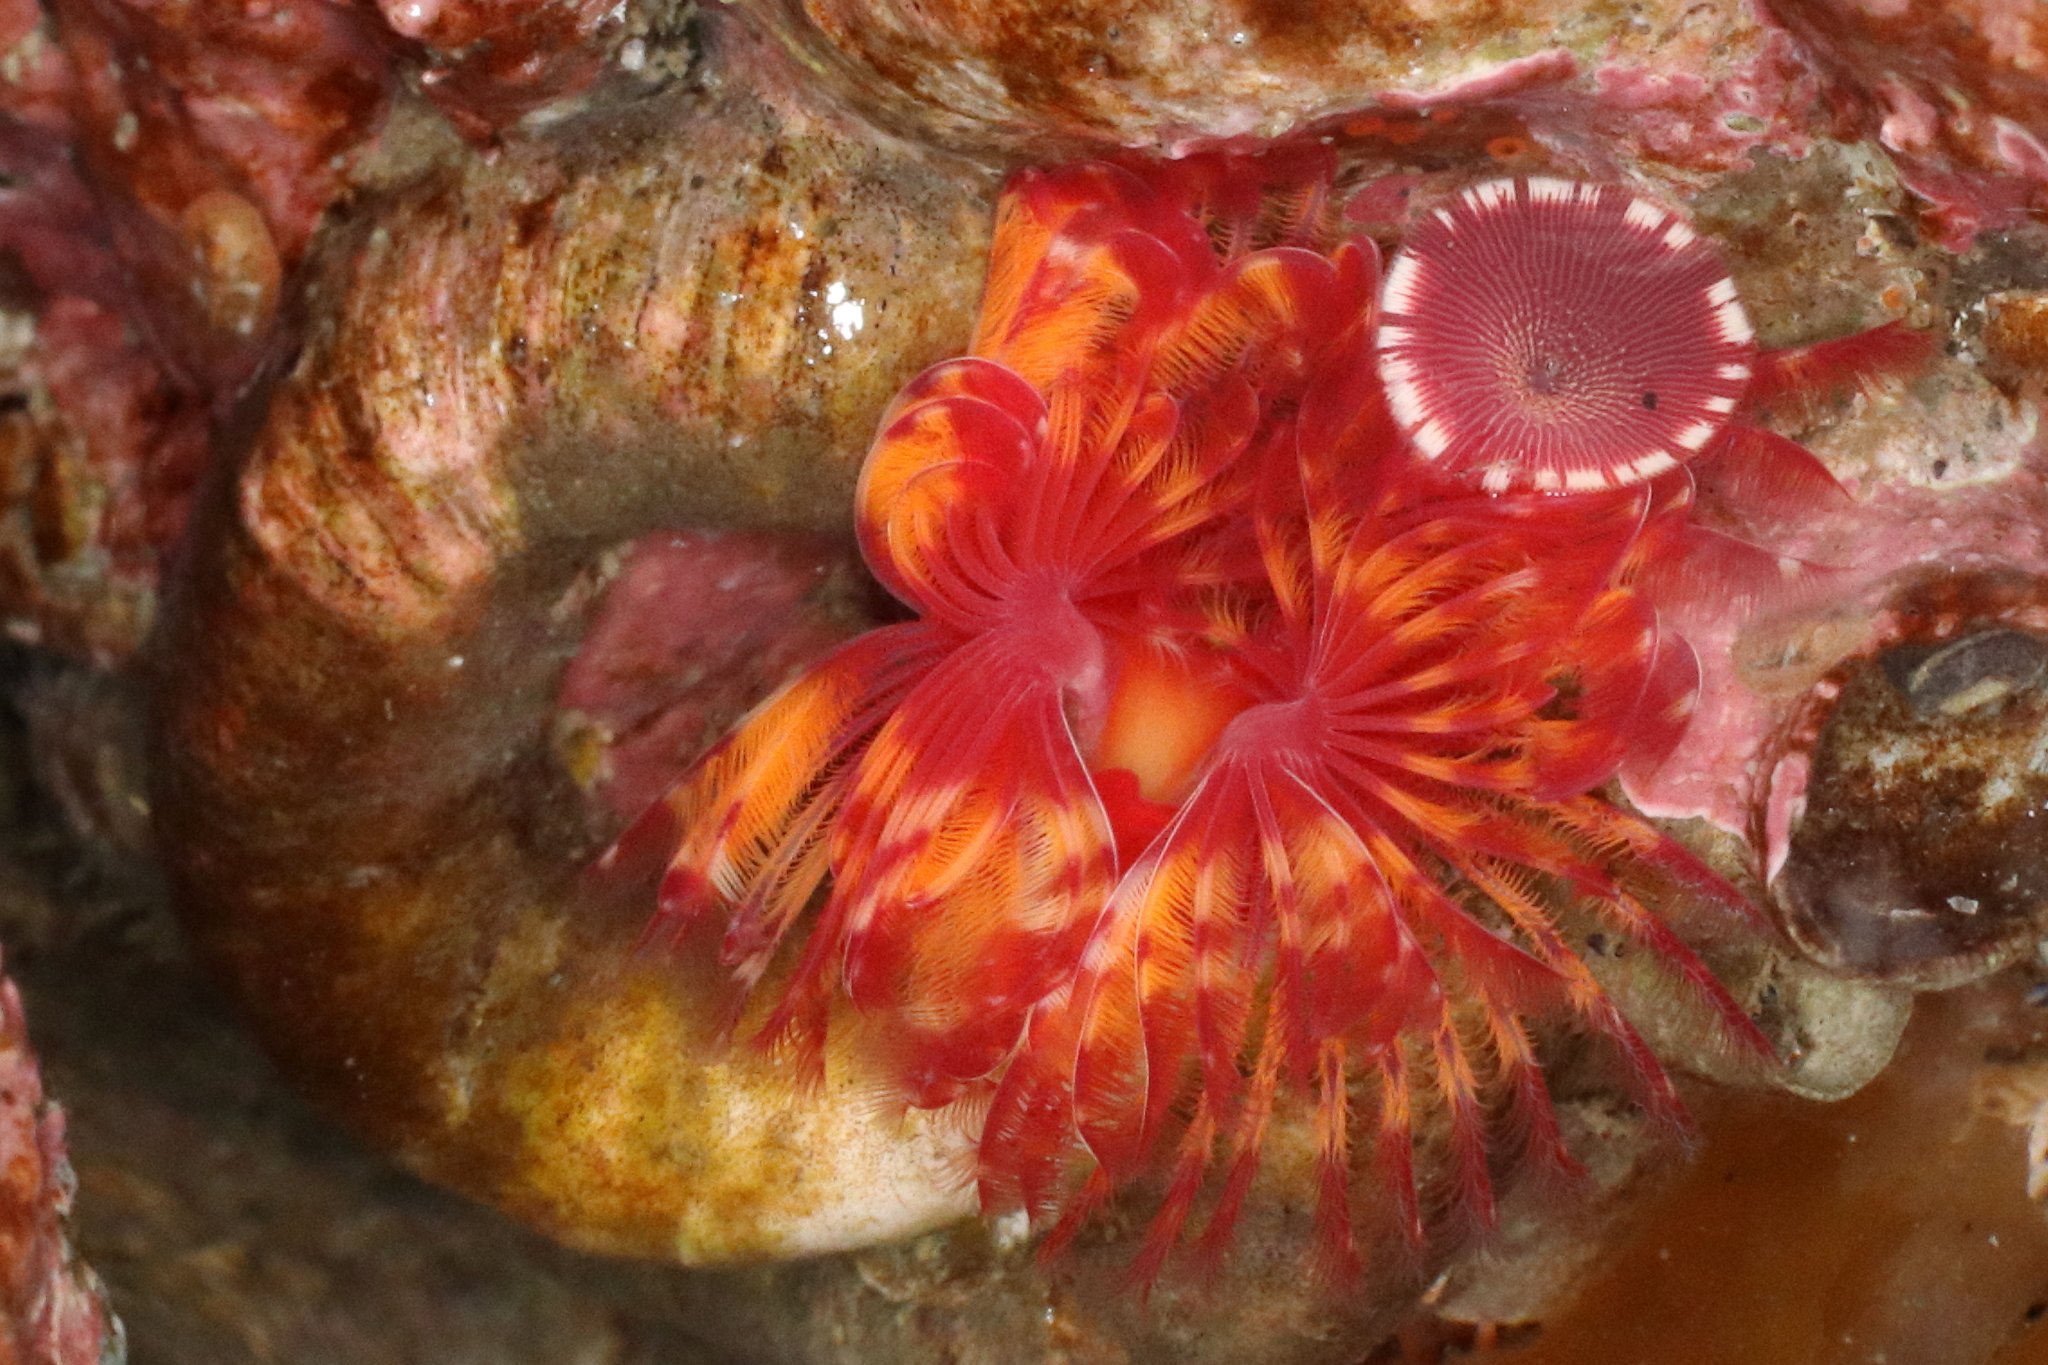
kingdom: Animalia
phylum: Annelida
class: Polychaeta
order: Sabellida
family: Serpulidae
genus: Serpula
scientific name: Serpula columbiana
